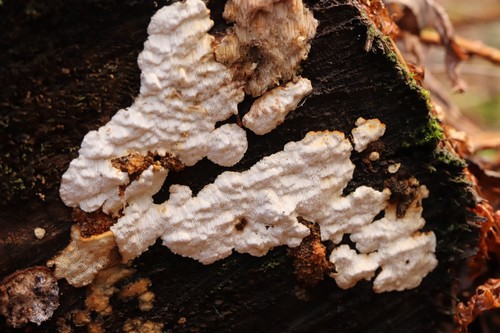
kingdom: Fungi
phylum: Basidiomycota
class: Agaricomycetes
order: Polyporales
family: Fomitopsidaceae
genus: Neoantrodia
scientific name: Neoantrodia serialis
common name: Serried porecrust
